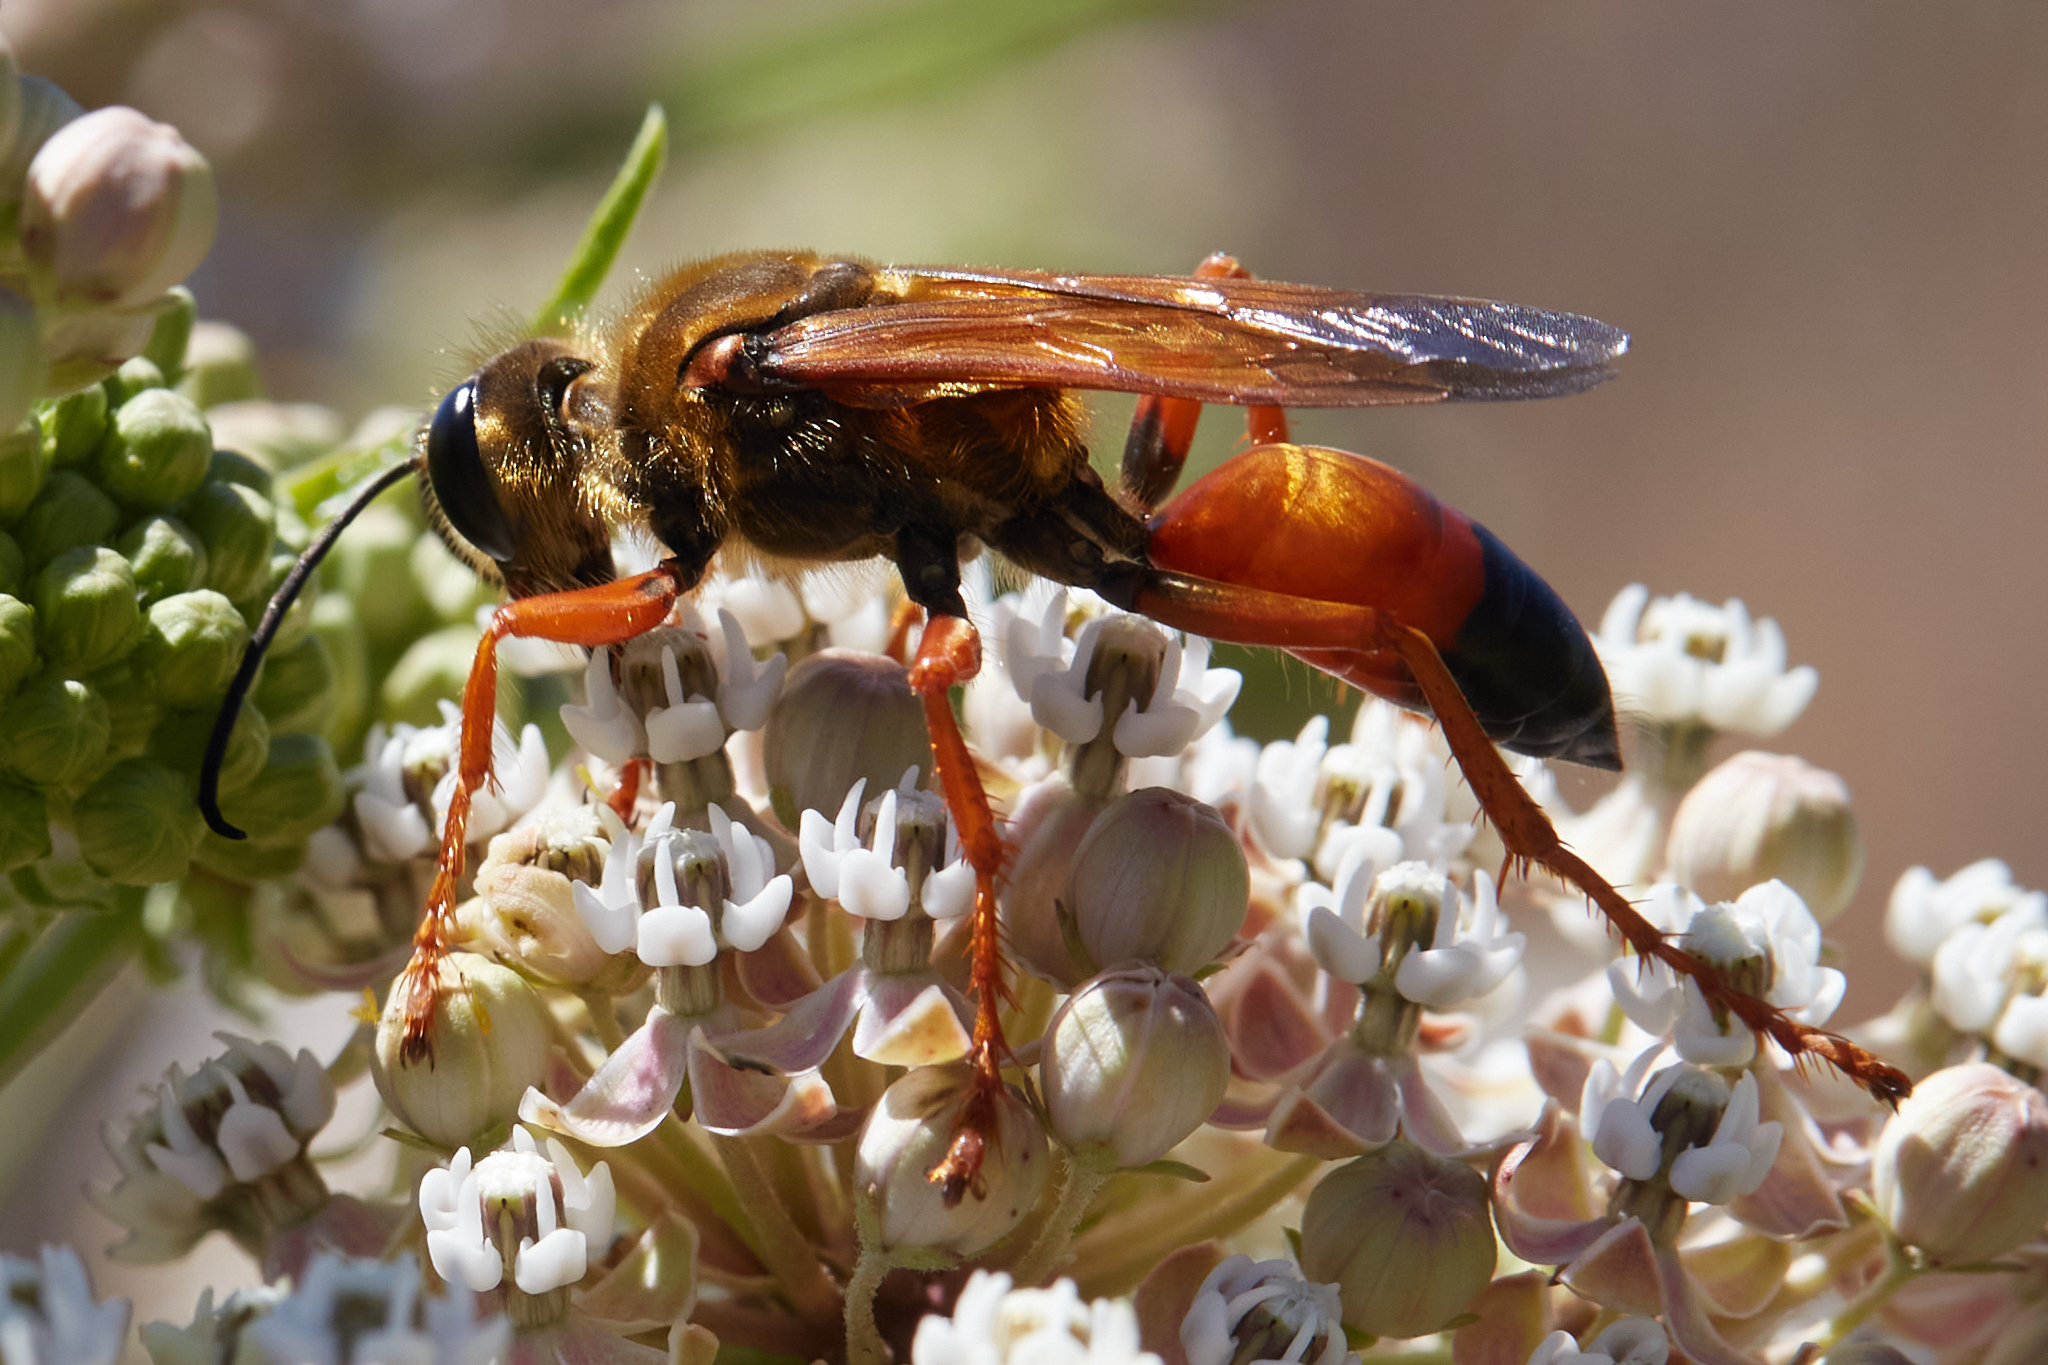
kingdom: Animalia
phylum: Arthropoda
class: Insecta
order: Hymenoptera
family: Sphecidae
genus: Sphex
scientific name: Sphex ichneumoneus
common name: Great golden digger wasp
